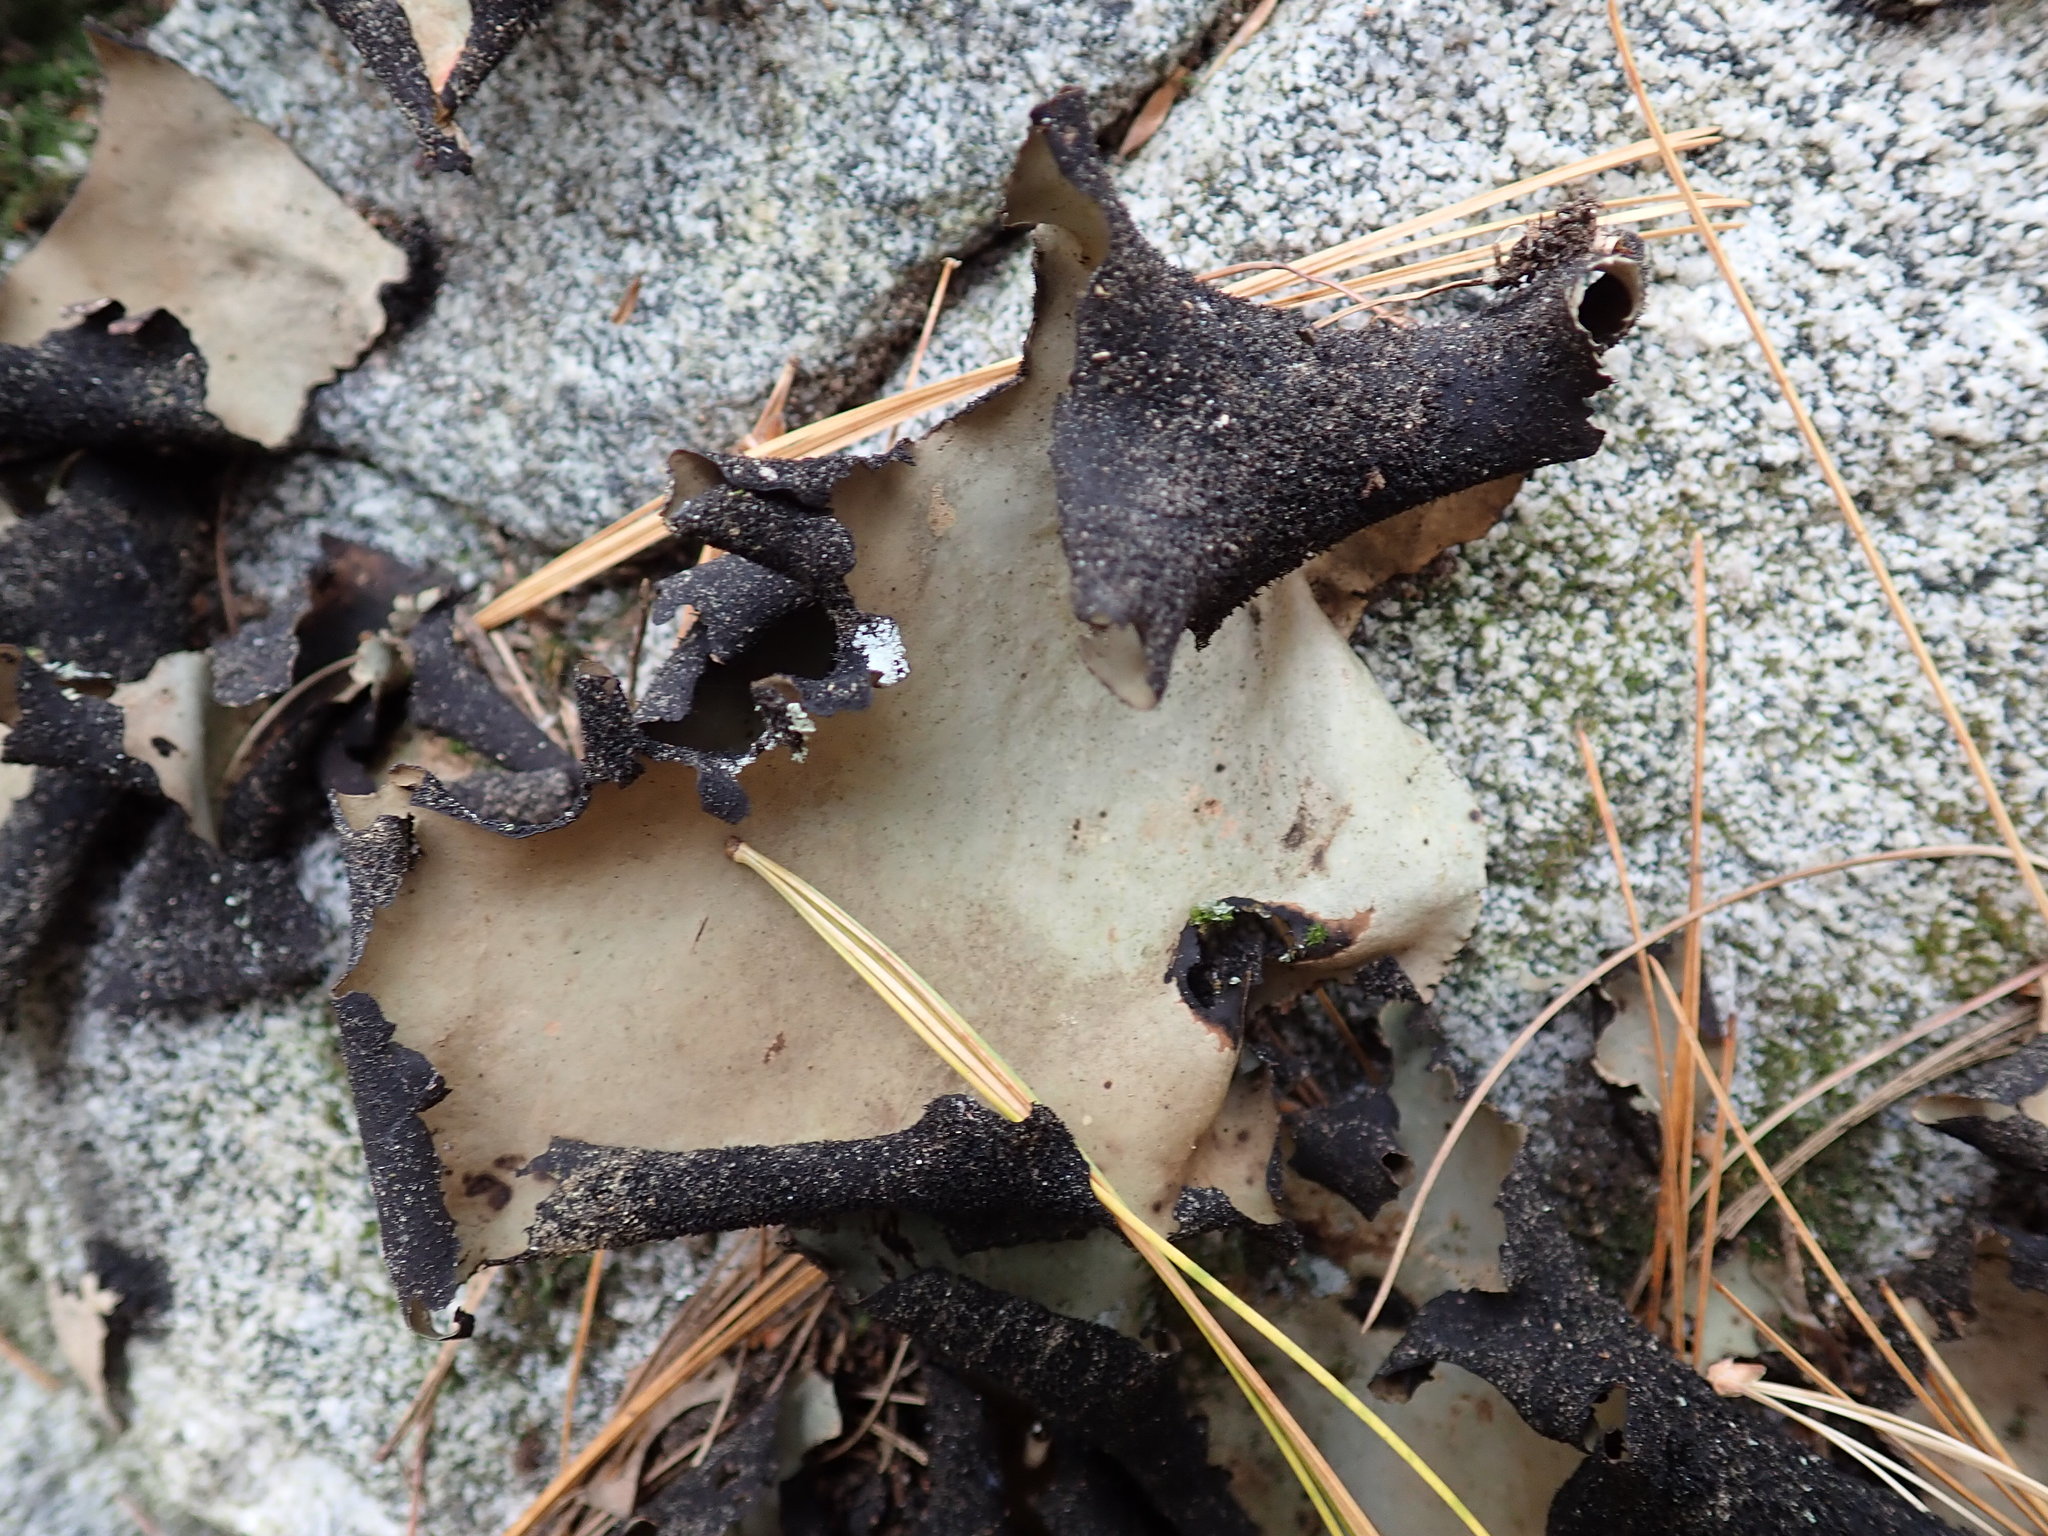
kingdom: Fungi
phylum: Ascomycota
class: Lecanoromycetes
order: Umbilicariales
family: Umbilicariaceae
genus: Umbilicaria
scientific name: Umbilicaria mammulata
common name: Smooth rock tripe
